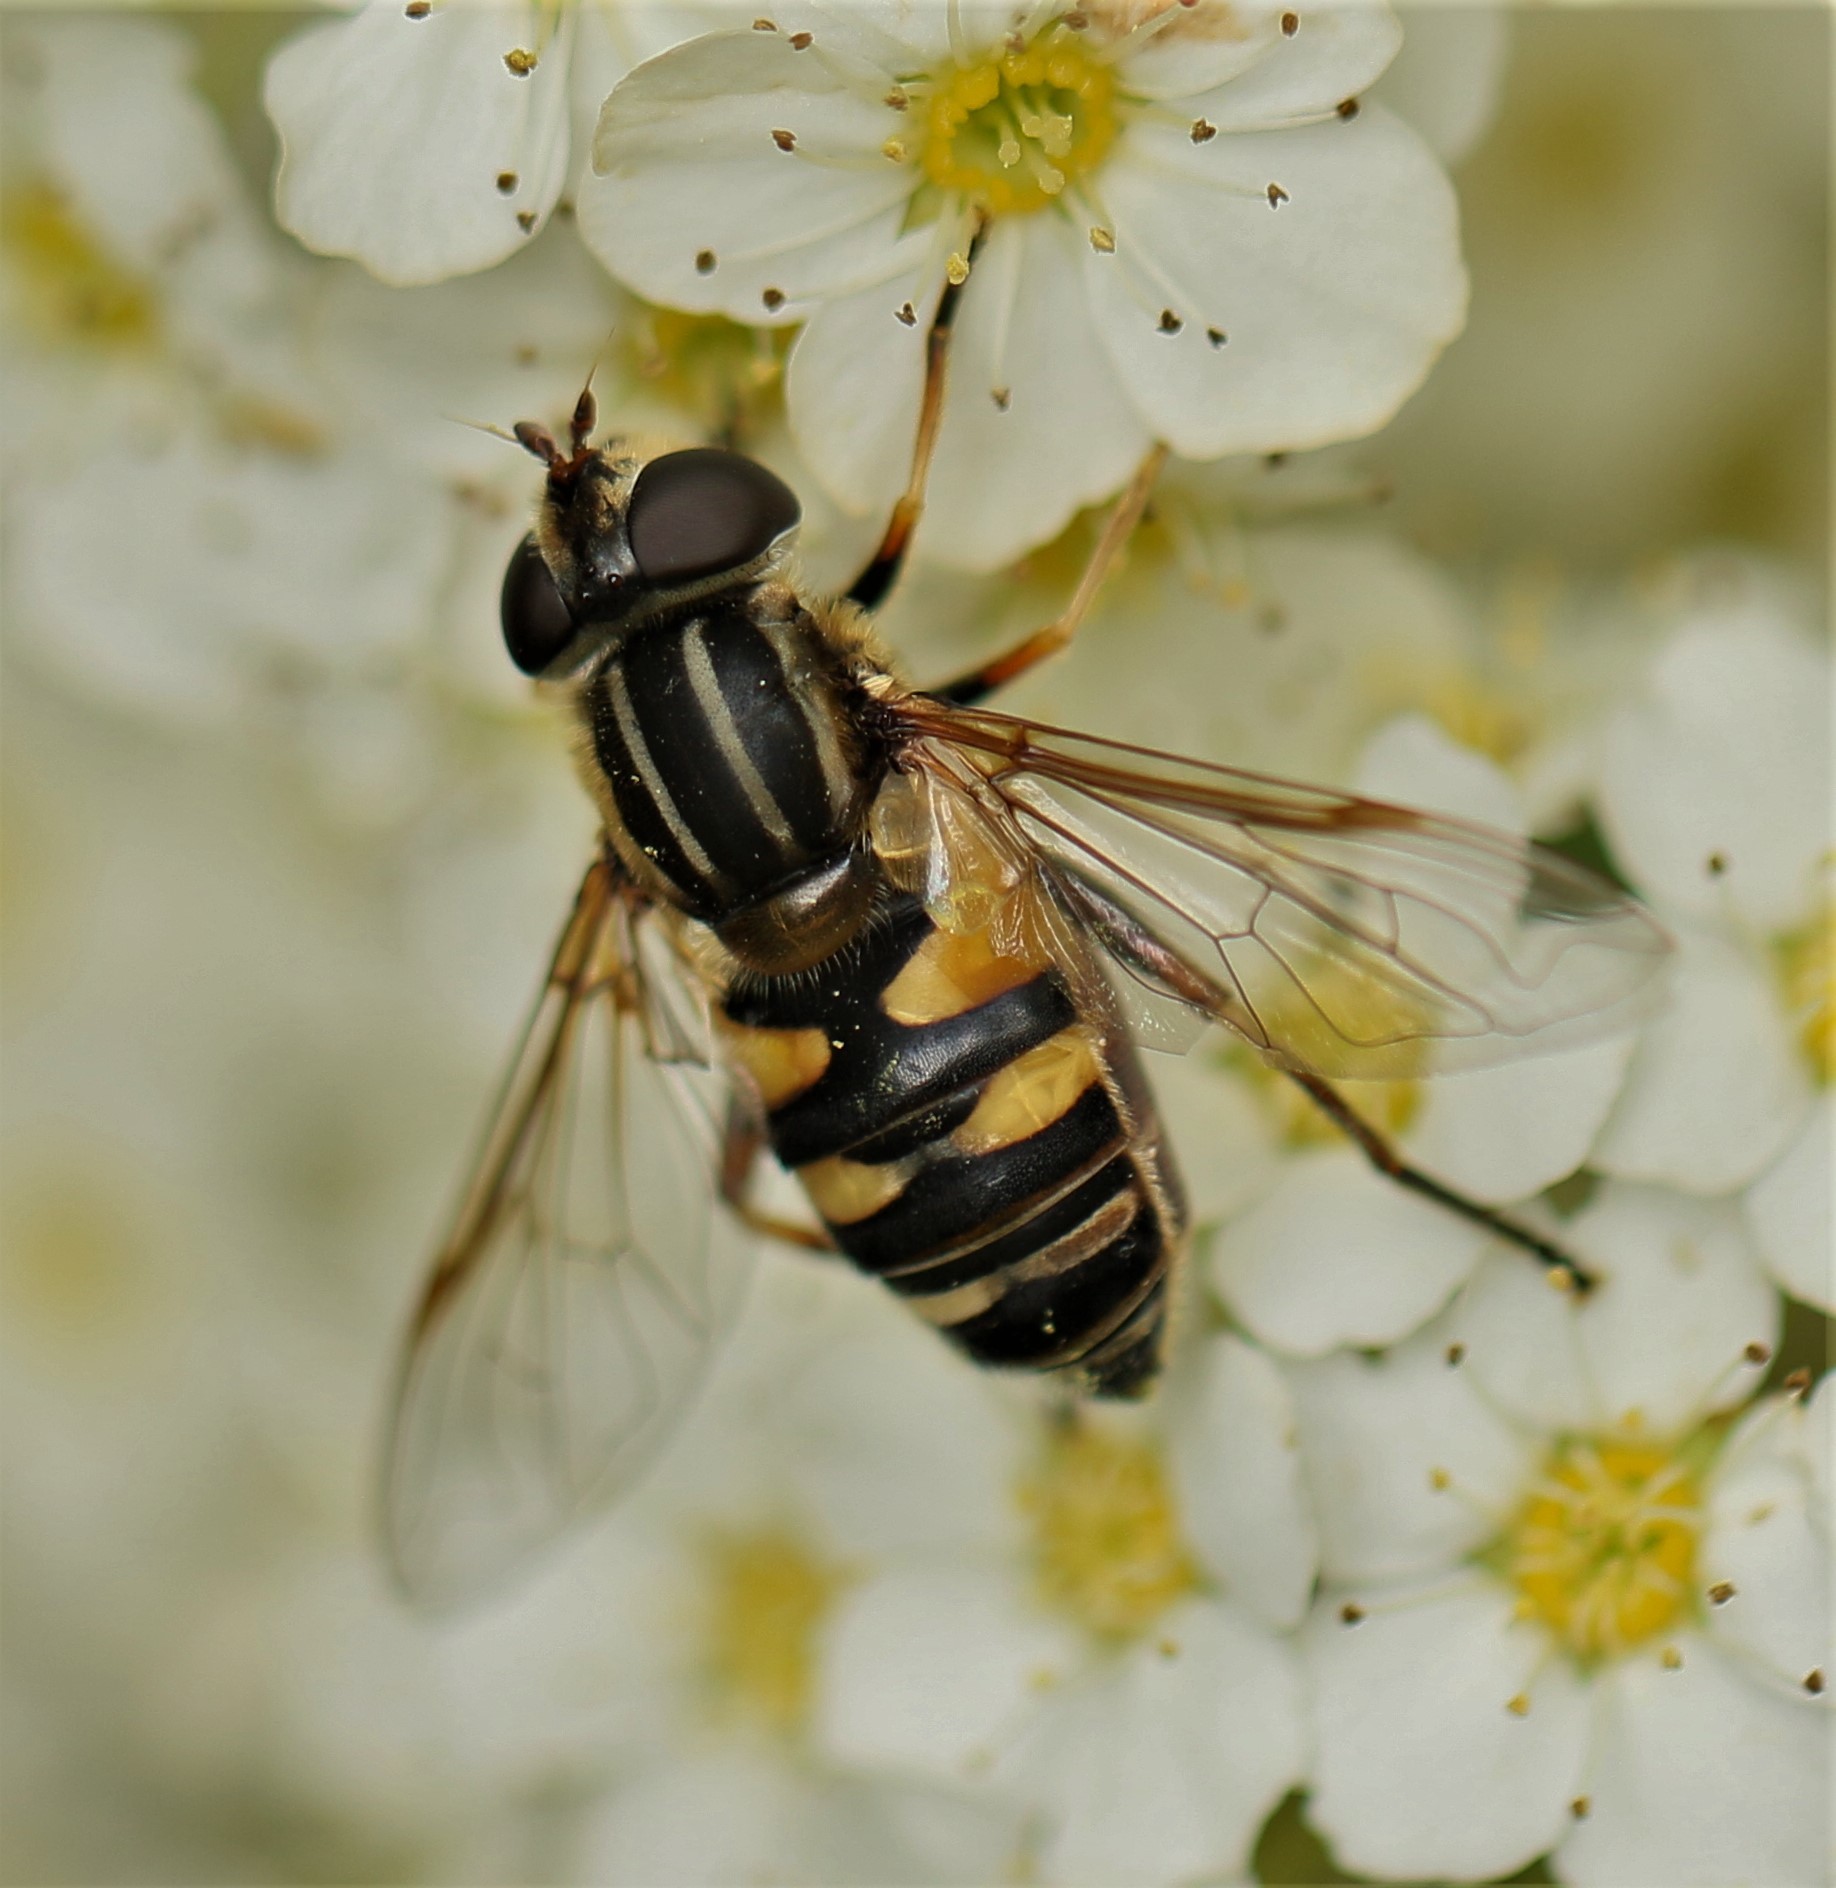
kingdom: Animalia
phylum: Arthropoda
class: Insecta
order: Diptera
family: Syrphidae
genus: Helophilus
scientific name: Helophilus fasciatus
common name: Narrow-headed marsh fly
